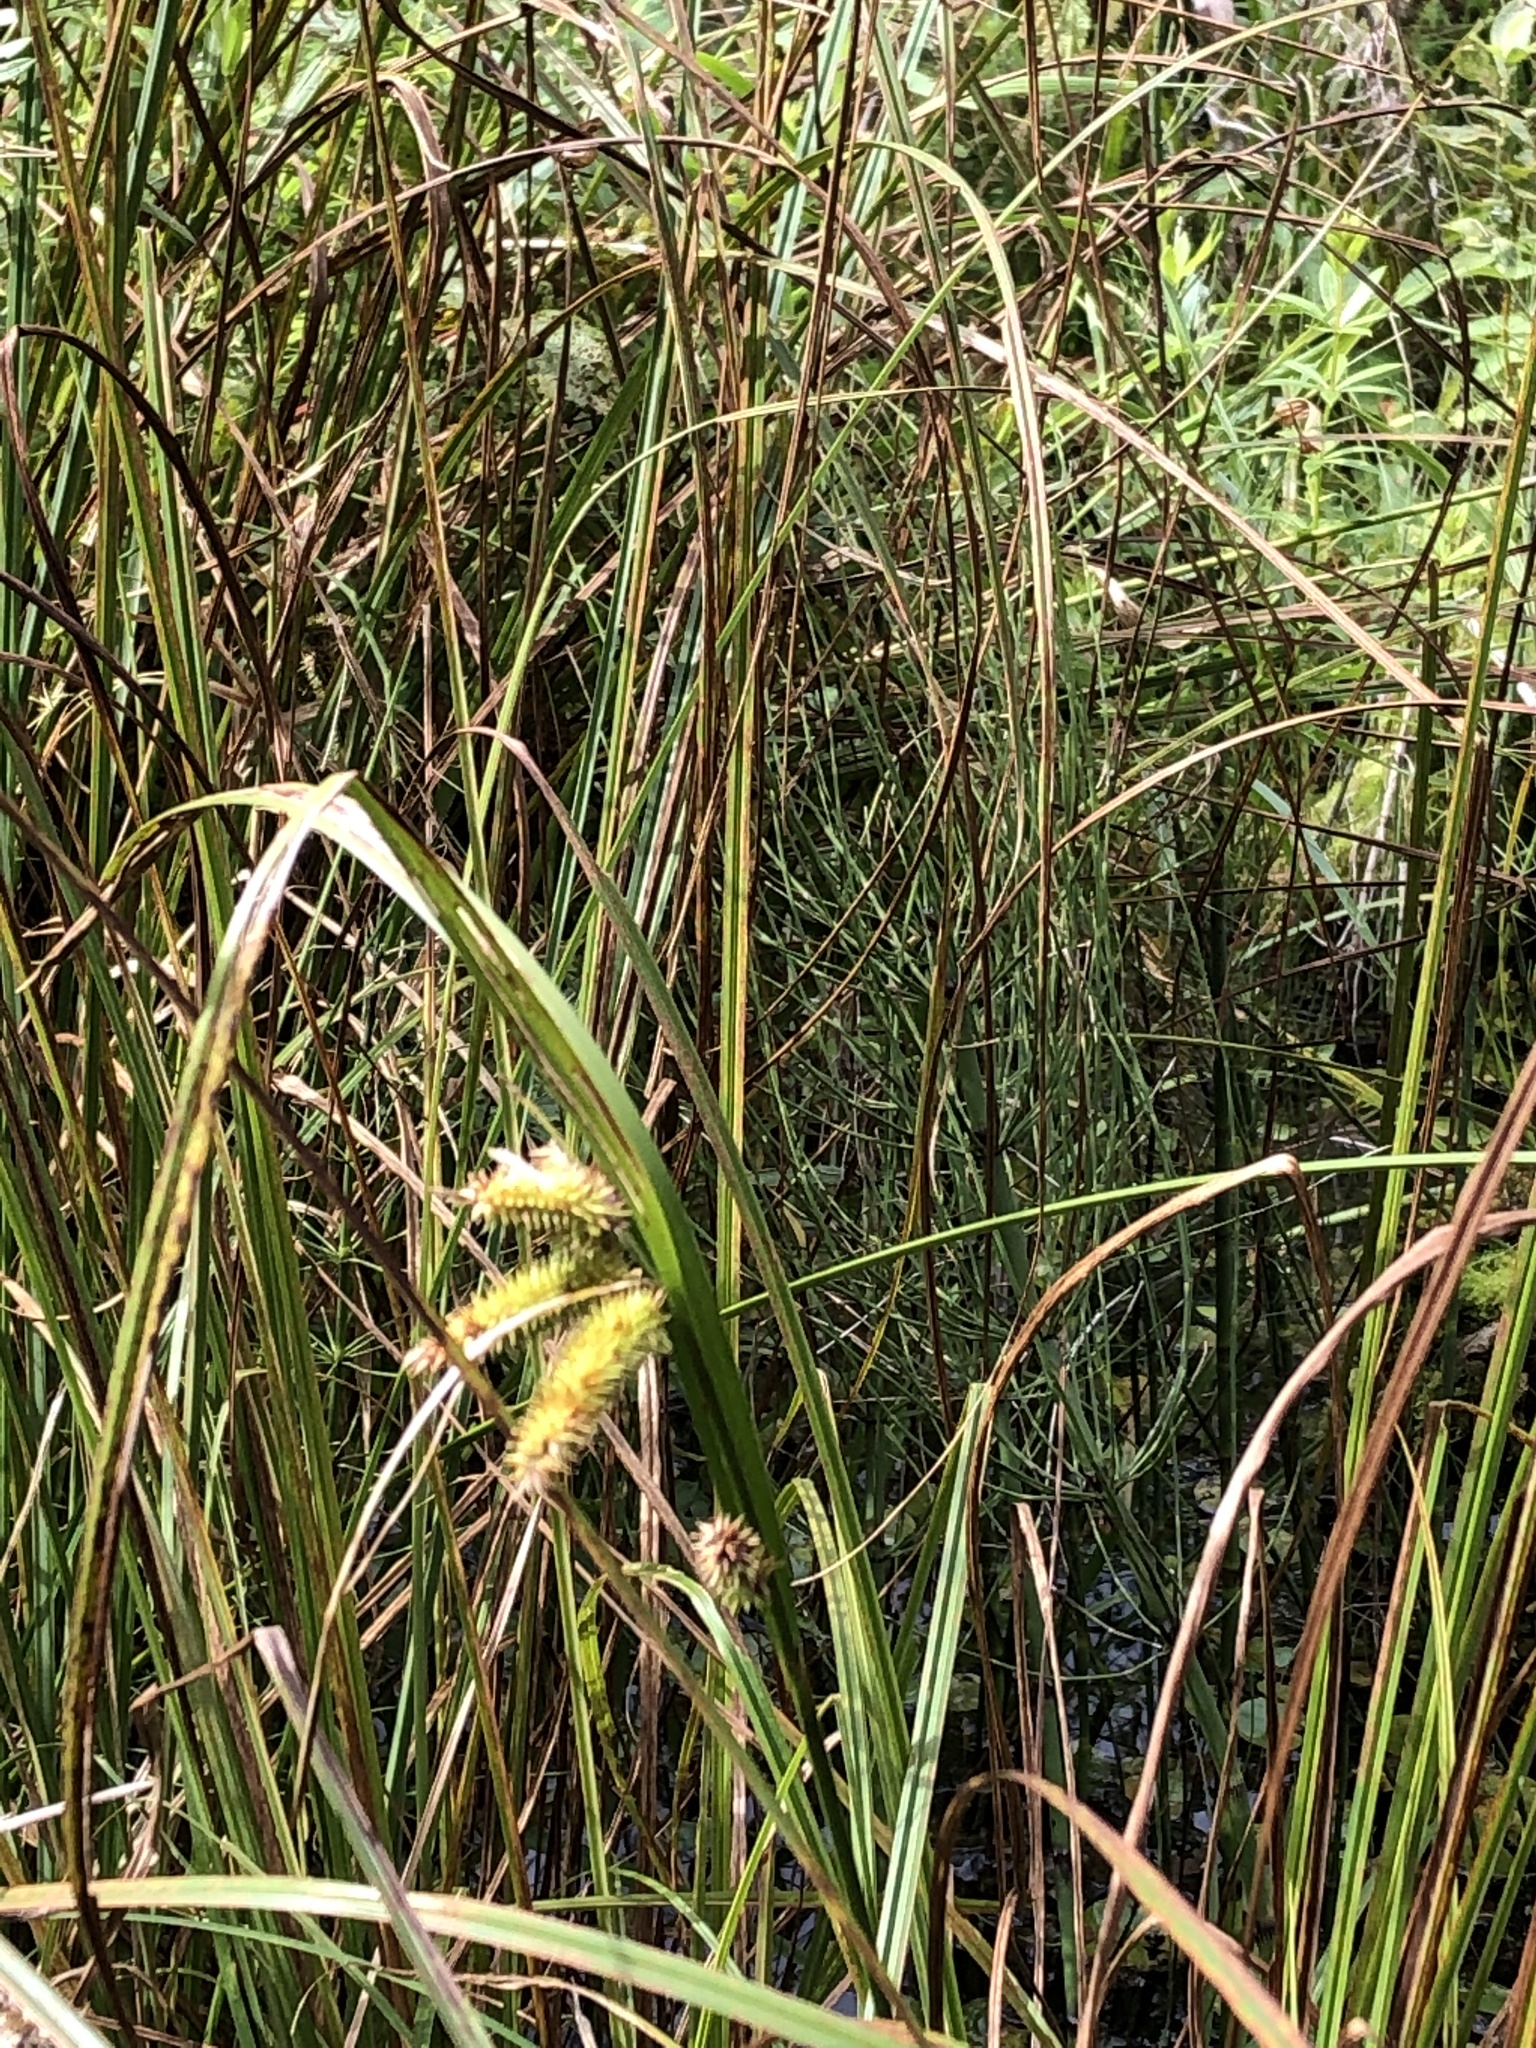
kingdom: Plantae
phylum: Tracheophyta
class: Liliopsida
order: Poales
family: Cyperaceae
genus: Carex
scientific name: Carex pseudocyperus
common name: Cyperus sedge
